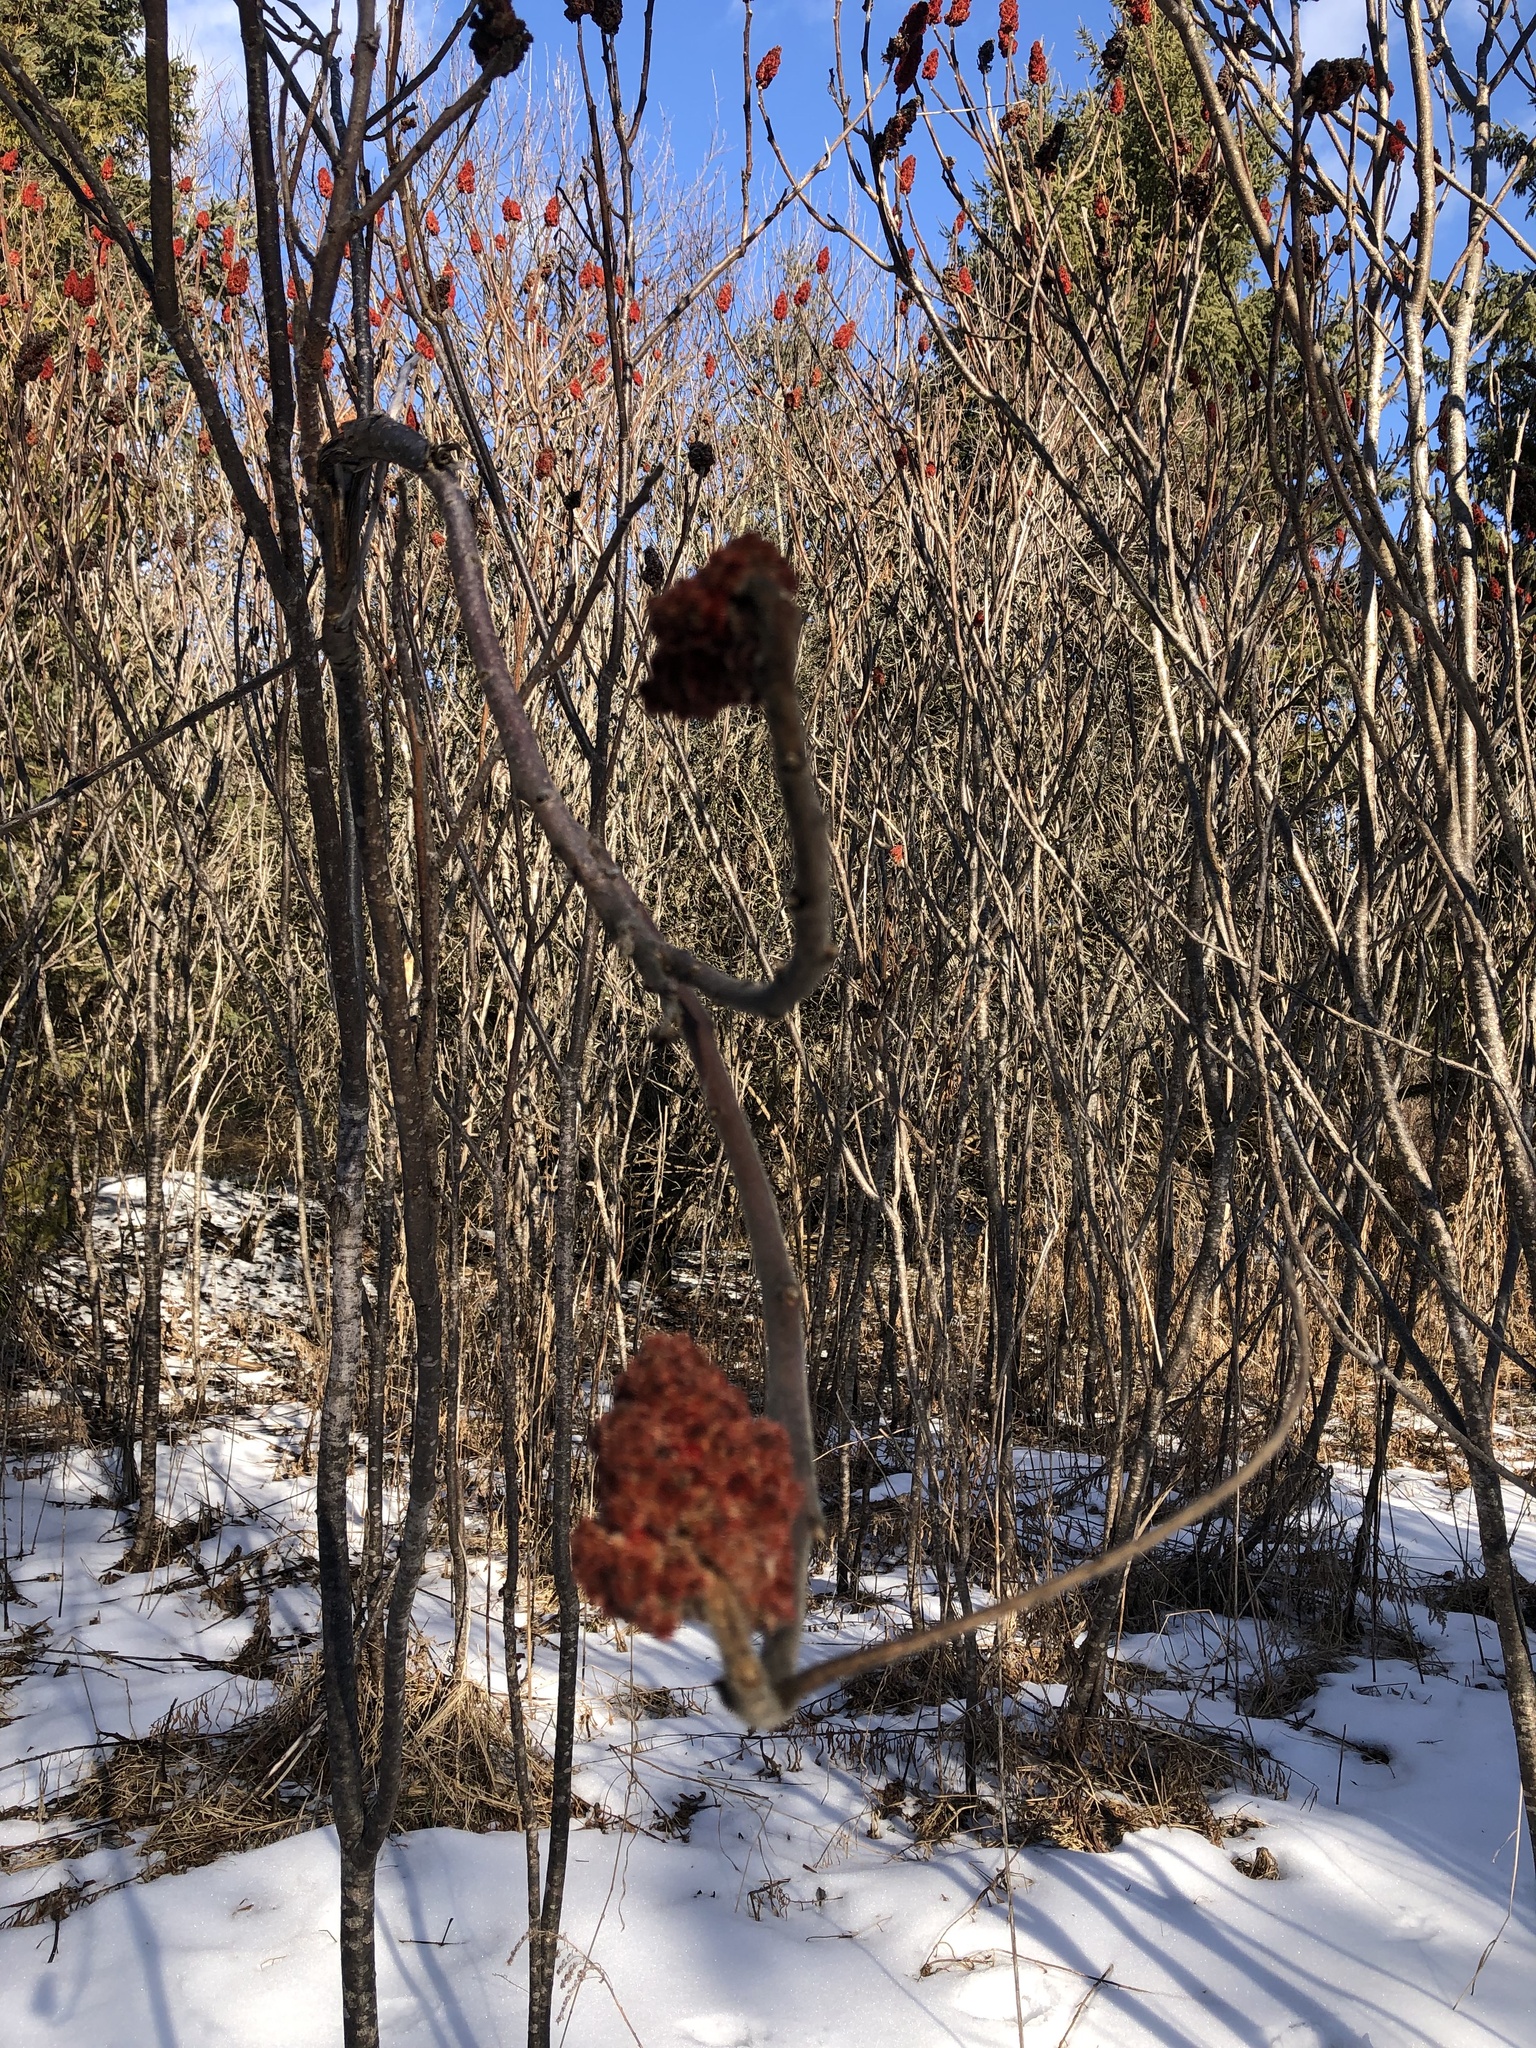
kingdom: Plantae
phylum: Tracheophyta
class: Magnoliopsida
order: Sapindales
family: Anacardiaceae
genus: Rhus
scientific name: Rhus typhina
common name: Staghorn sumac
